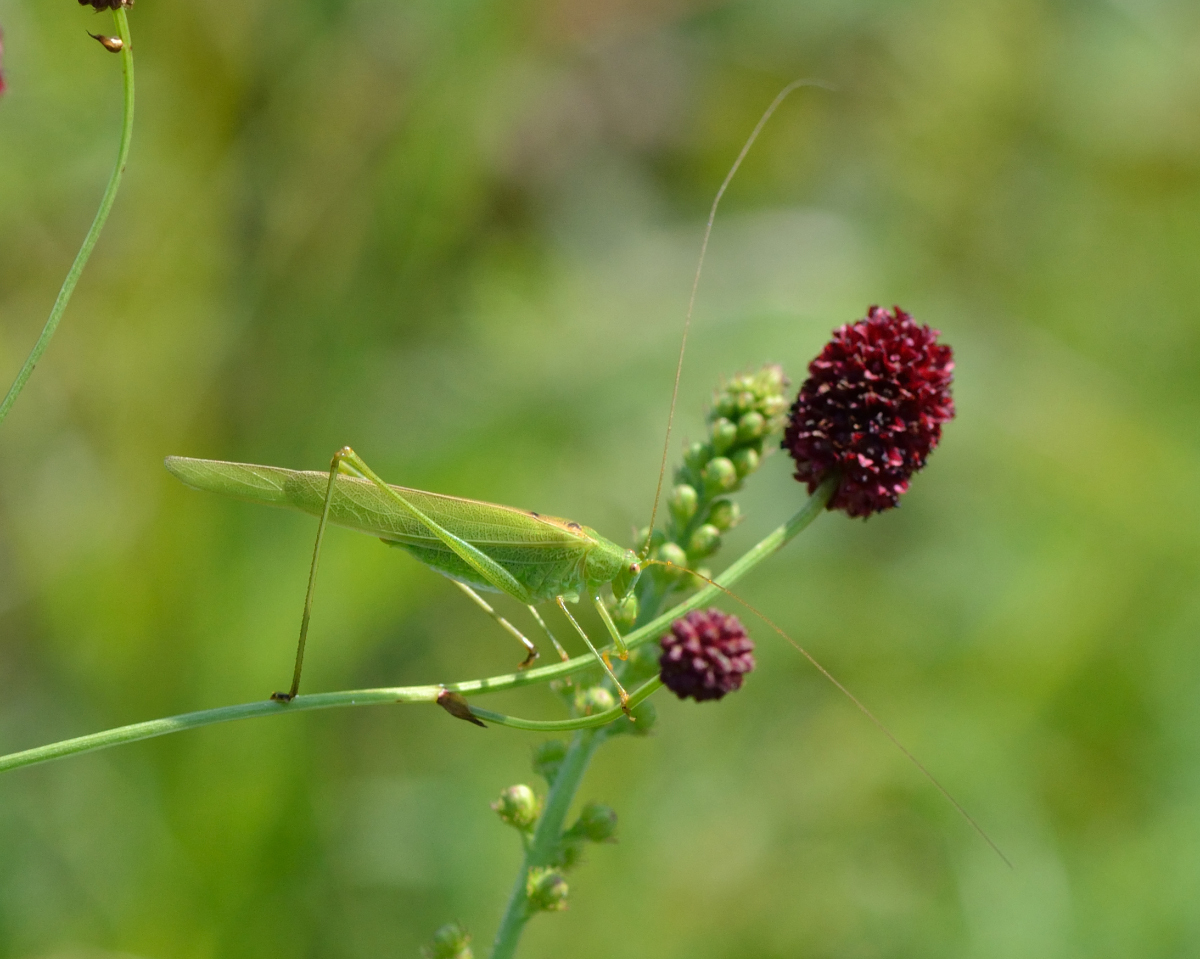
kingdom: Animalia
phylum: Arthropoda
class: Insecta
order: Orthoptera
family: Tettigoniidae
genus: Phaneroptera
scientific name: Phaneroptera falcata
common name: Sickle-bearing bush-cricket
